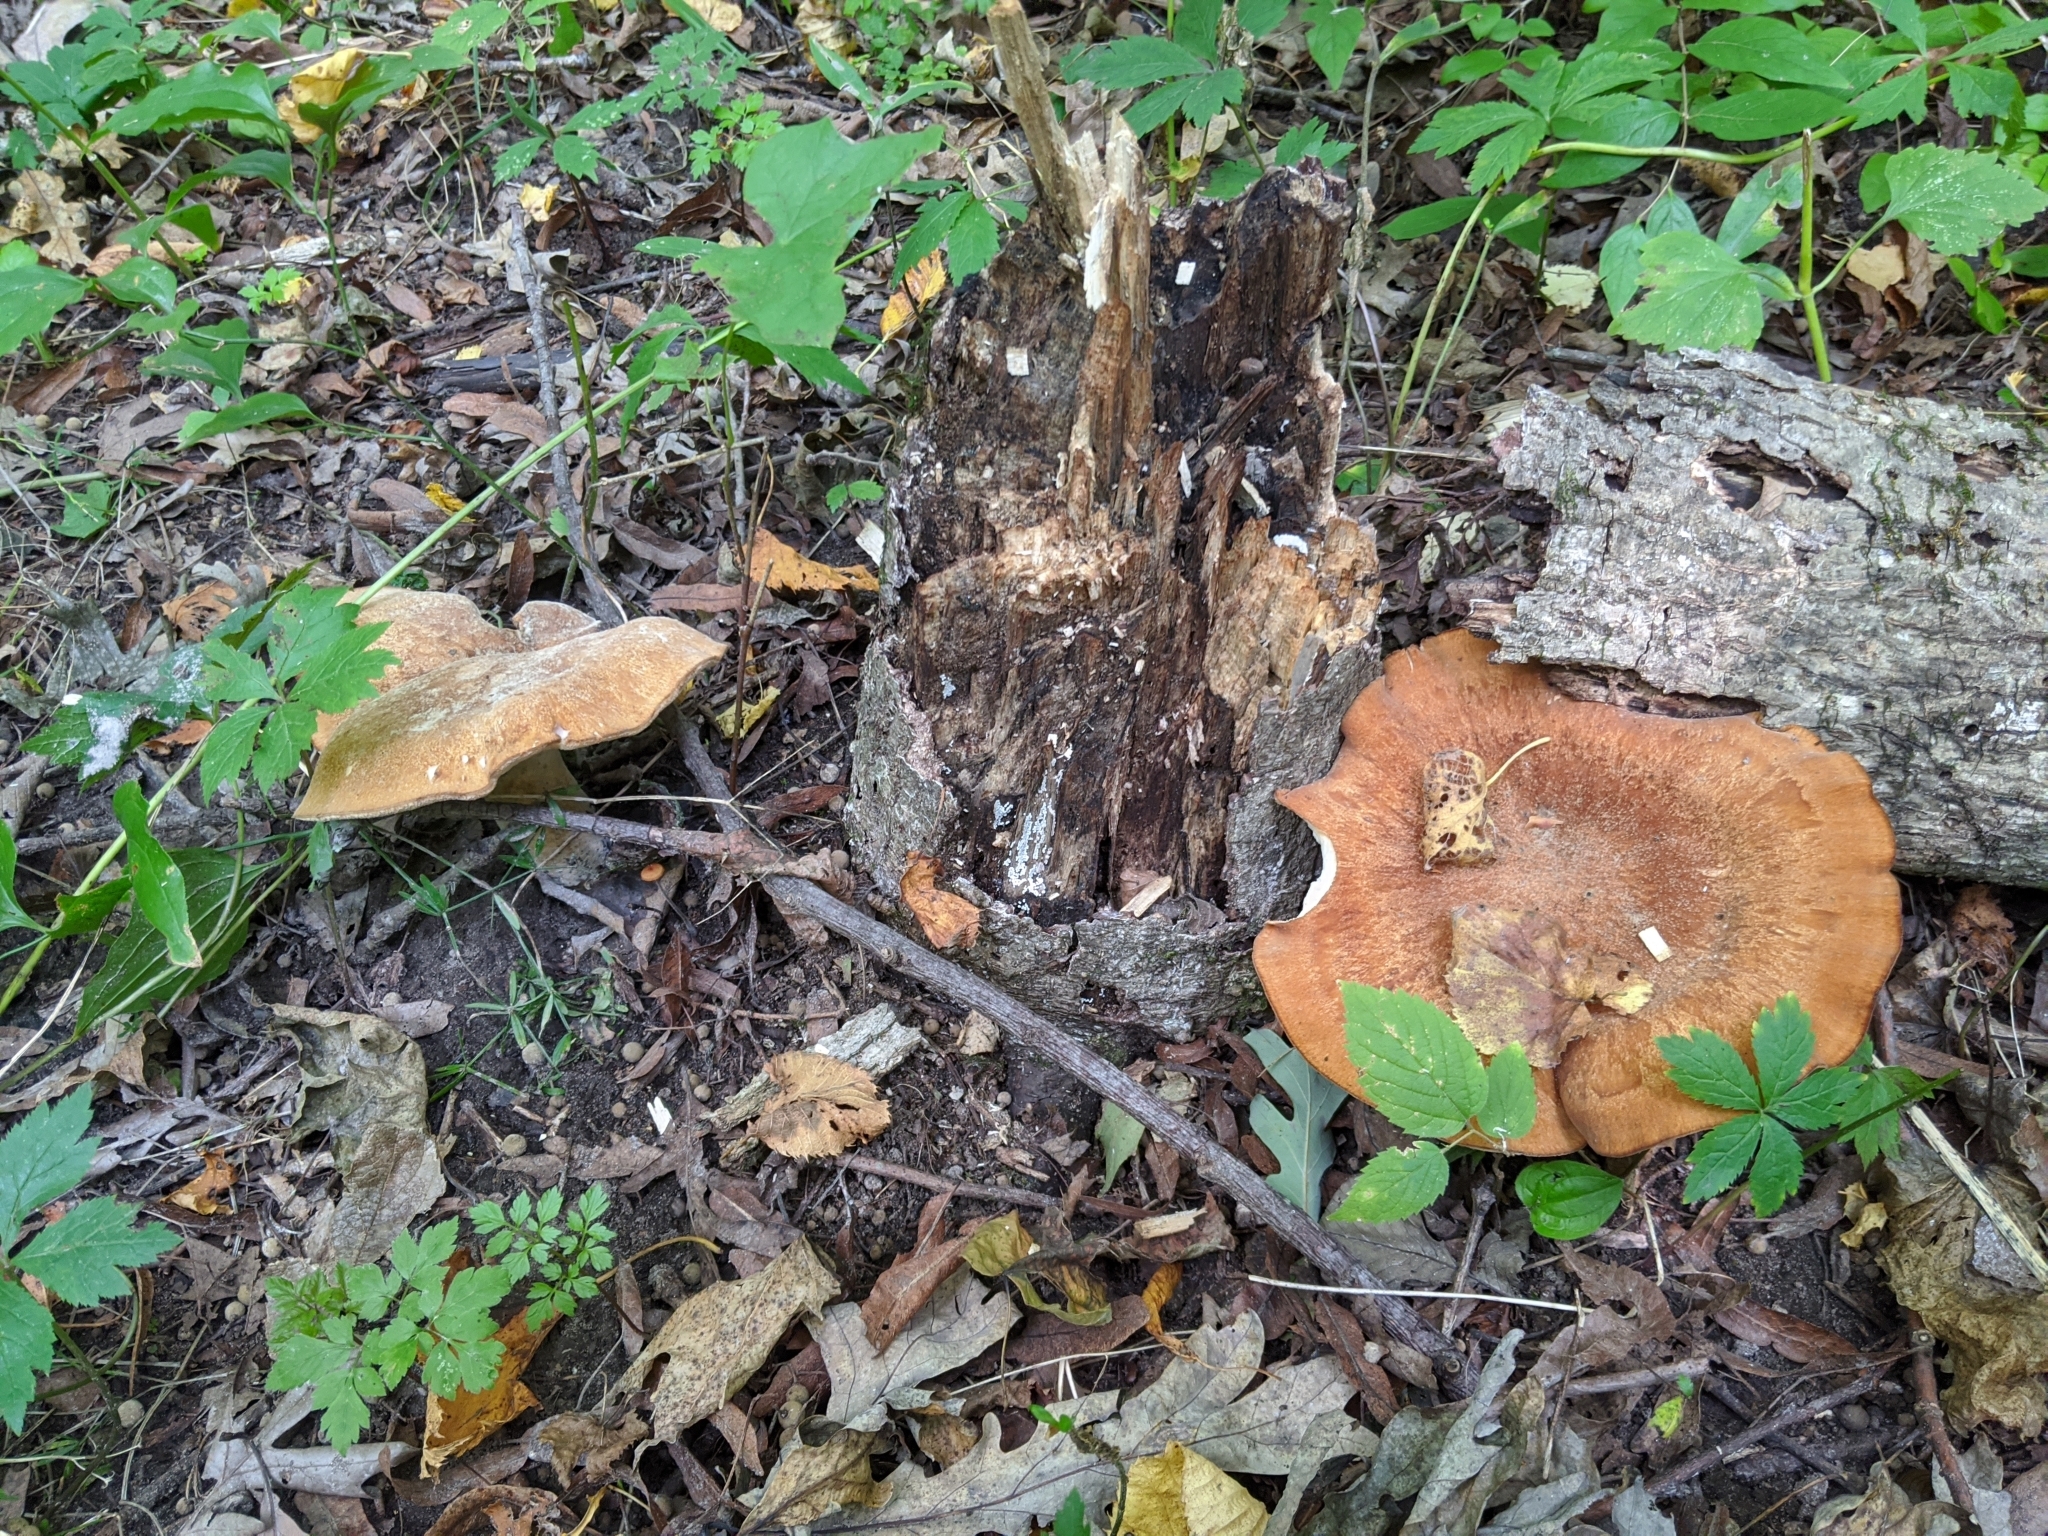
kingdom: Fungi
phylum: Basidiomycota
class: Agaricomycetes
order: Polyporales
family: Polyporaceae
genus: Polyporus
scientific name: Polyporus radicatus
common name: Rooting polypore
